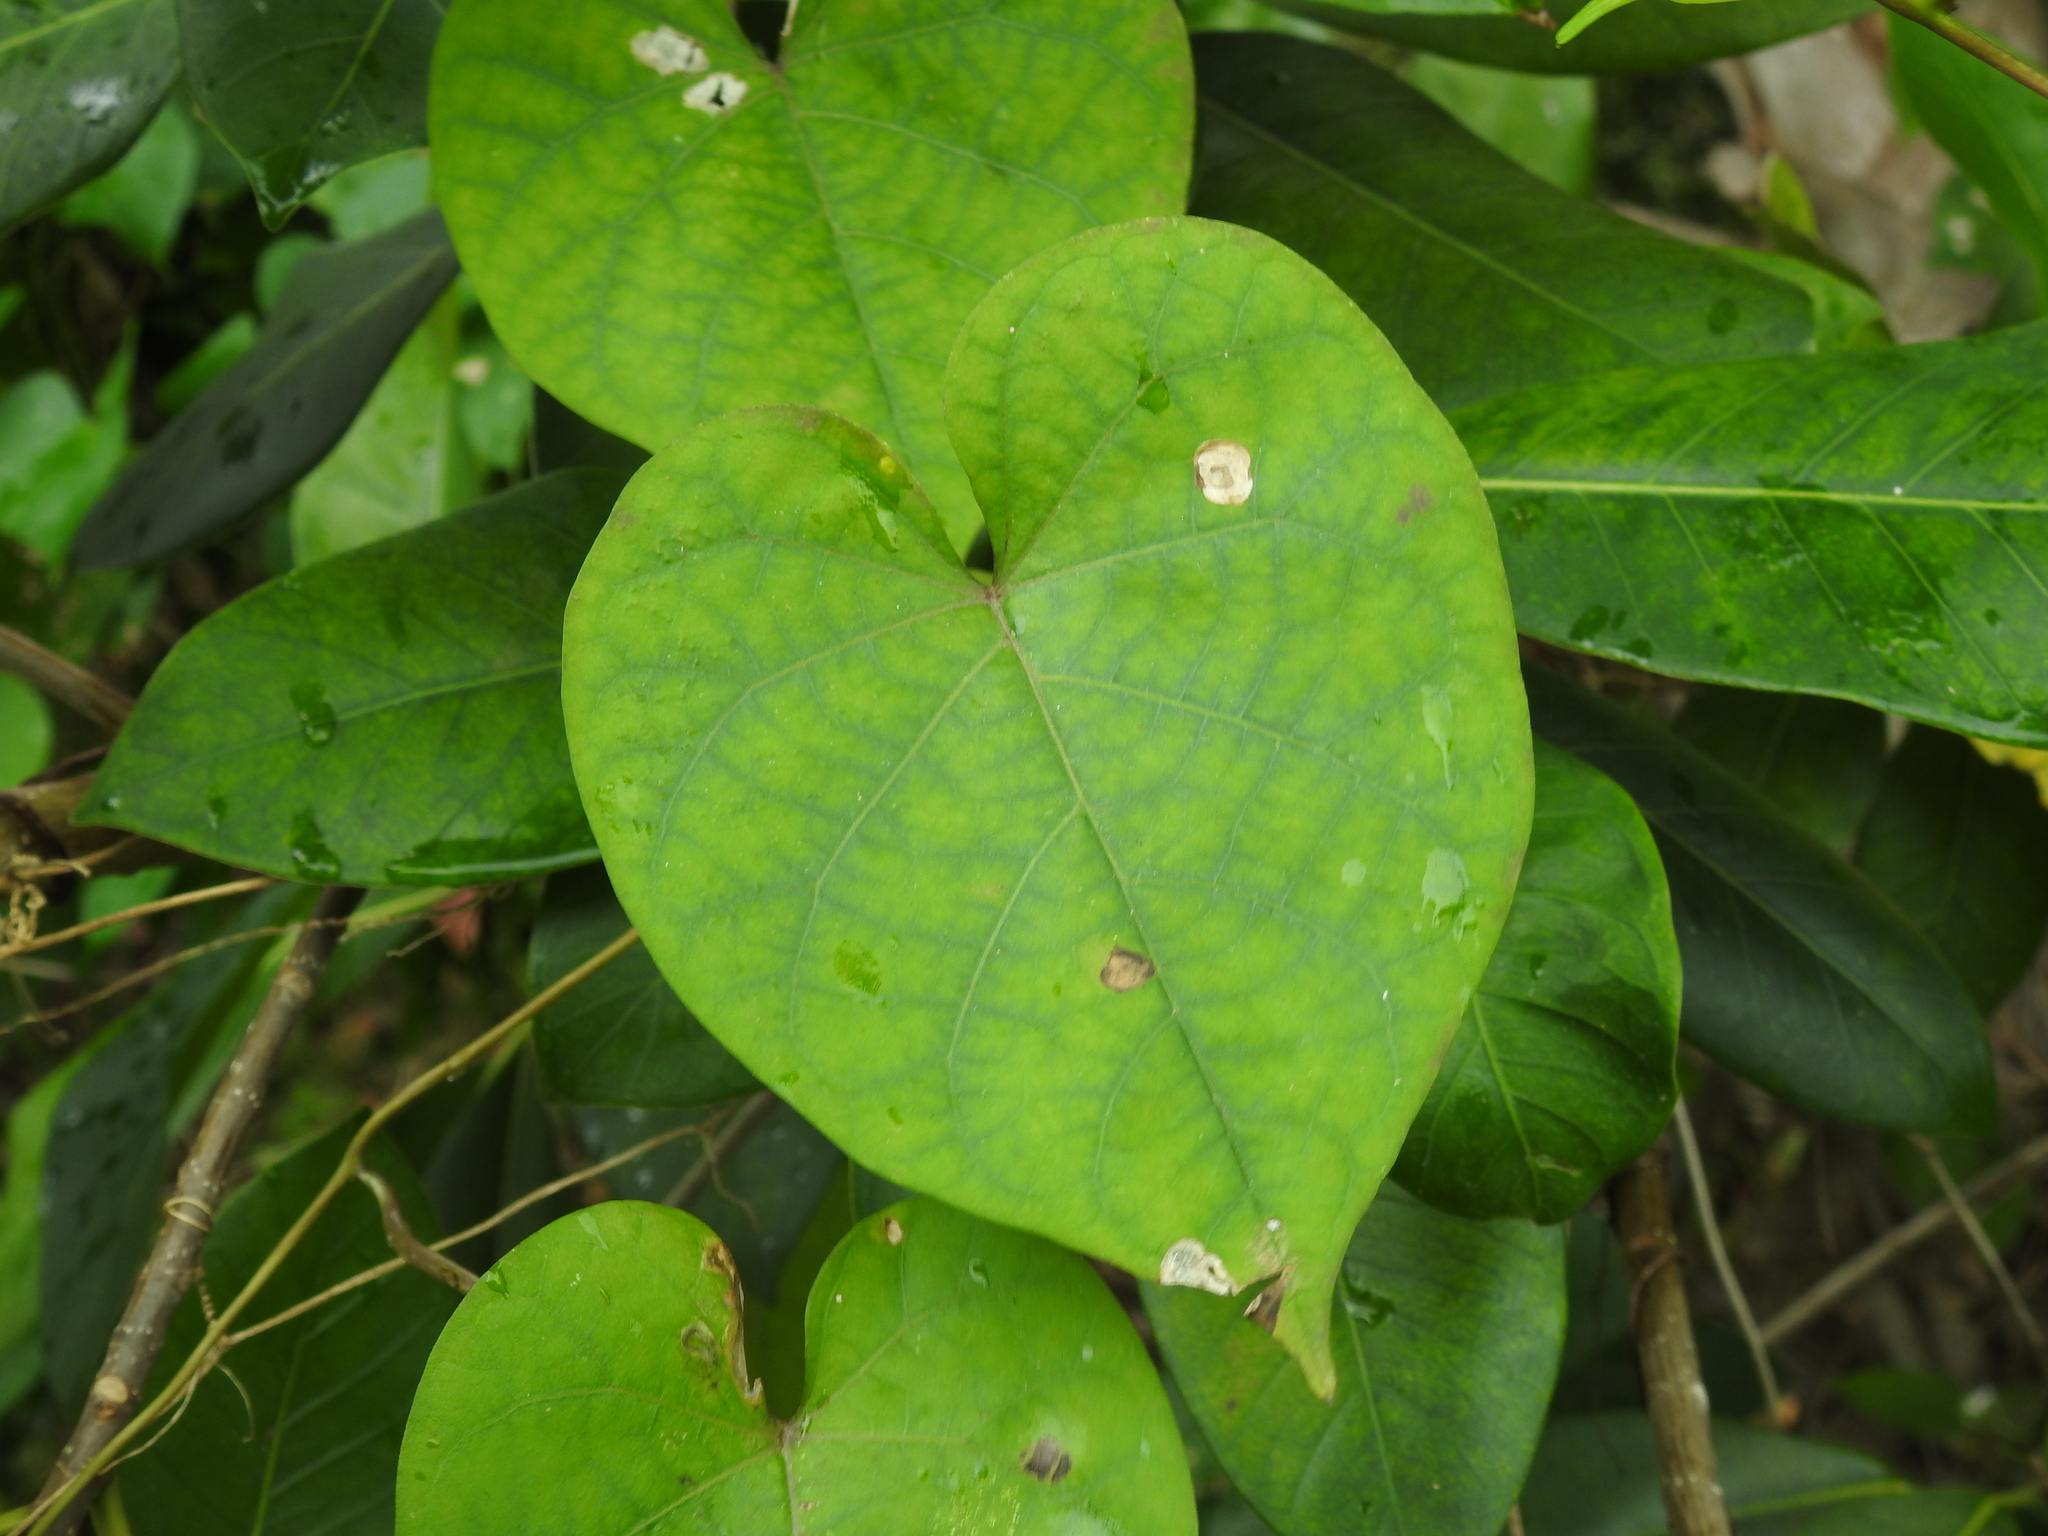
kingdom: Plantae
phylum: Tracheophyta
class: Magnoliopsida
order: Solanales
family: Convolvulaceae
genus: Ipomoea
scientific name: Ipomoea indica
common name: Blue dawnflower
